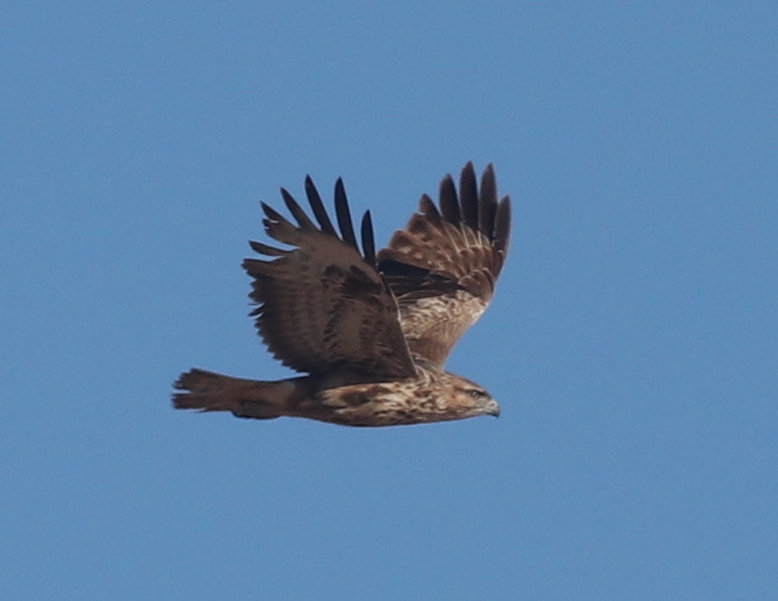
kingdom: Animalia
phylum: Chordata
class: Aves
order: Accipitriformes
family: Accipitridae
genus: Buteo
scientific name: Buteo buteo
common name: Common buzzard
